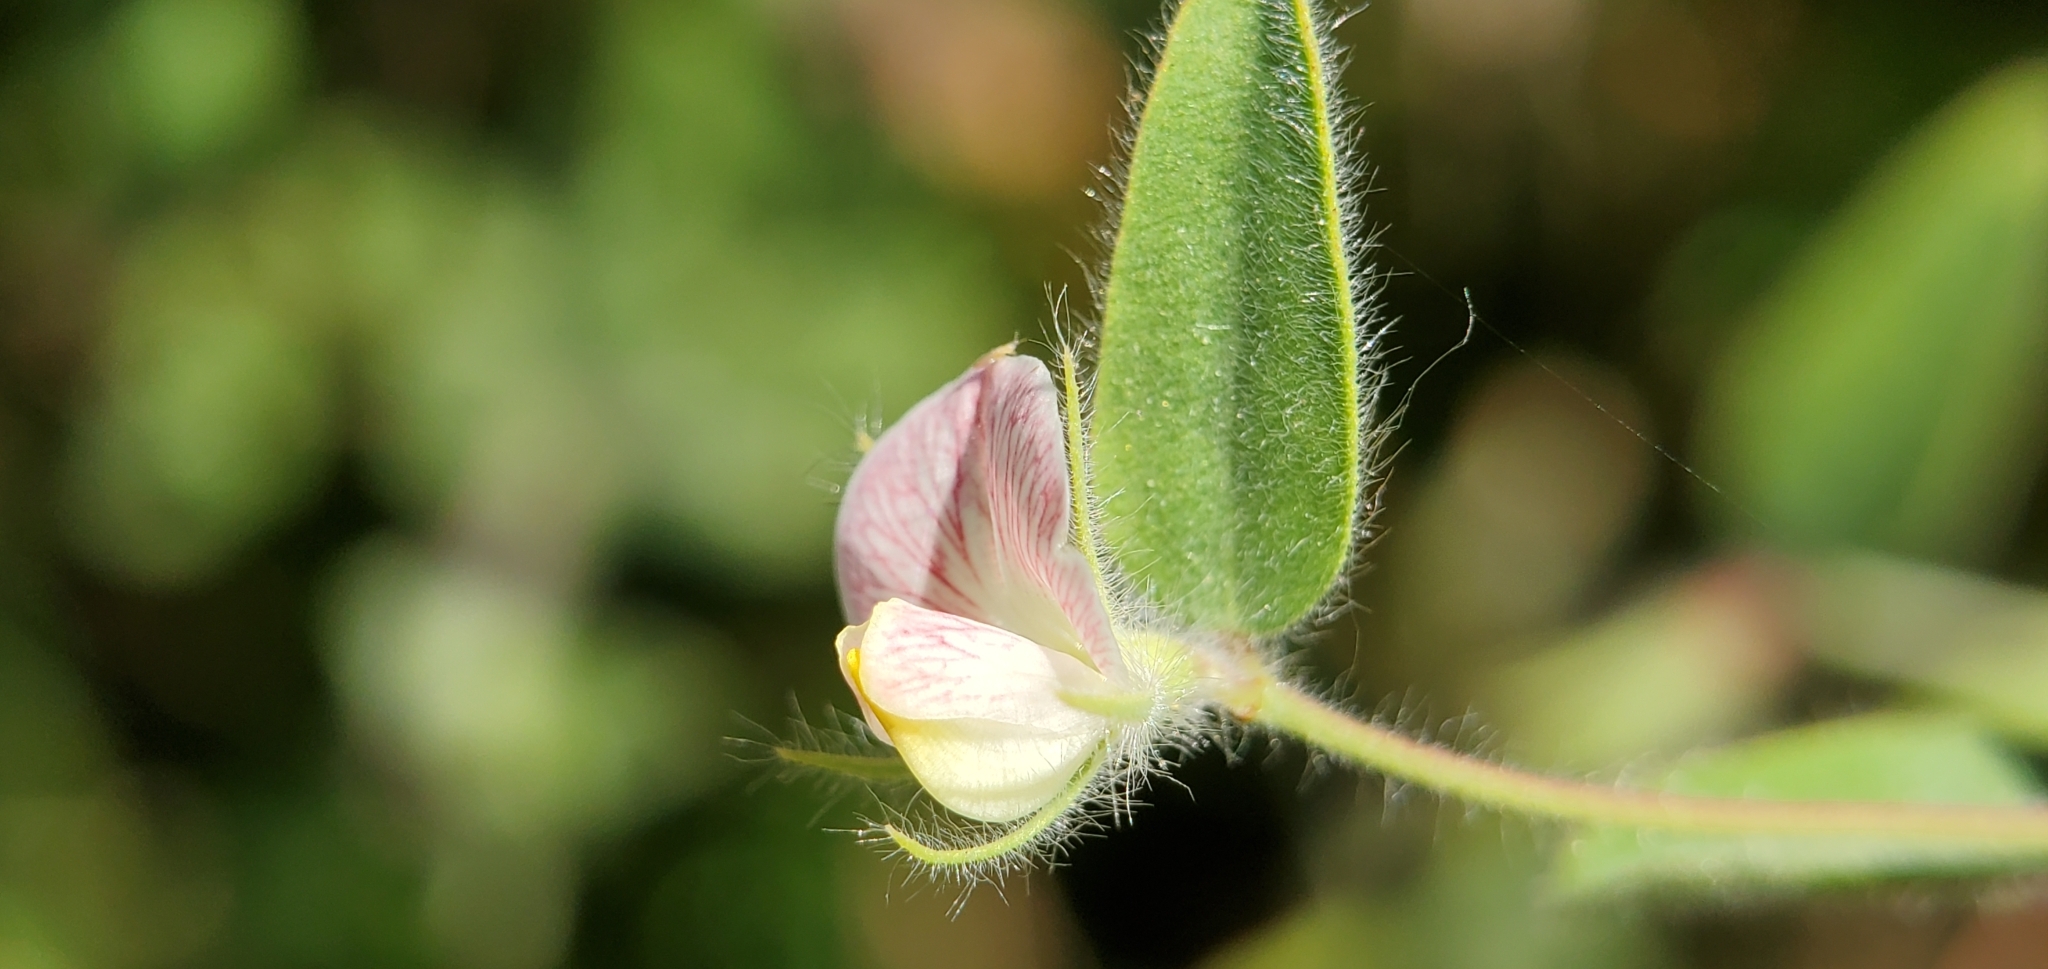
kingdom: Plantae
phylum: Tracheophyta
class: Magnoliopsida
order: Fabales
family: Fabaceae
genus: Acmispon
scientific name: Acmispon americanus
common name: American bird's-foot trefoil
